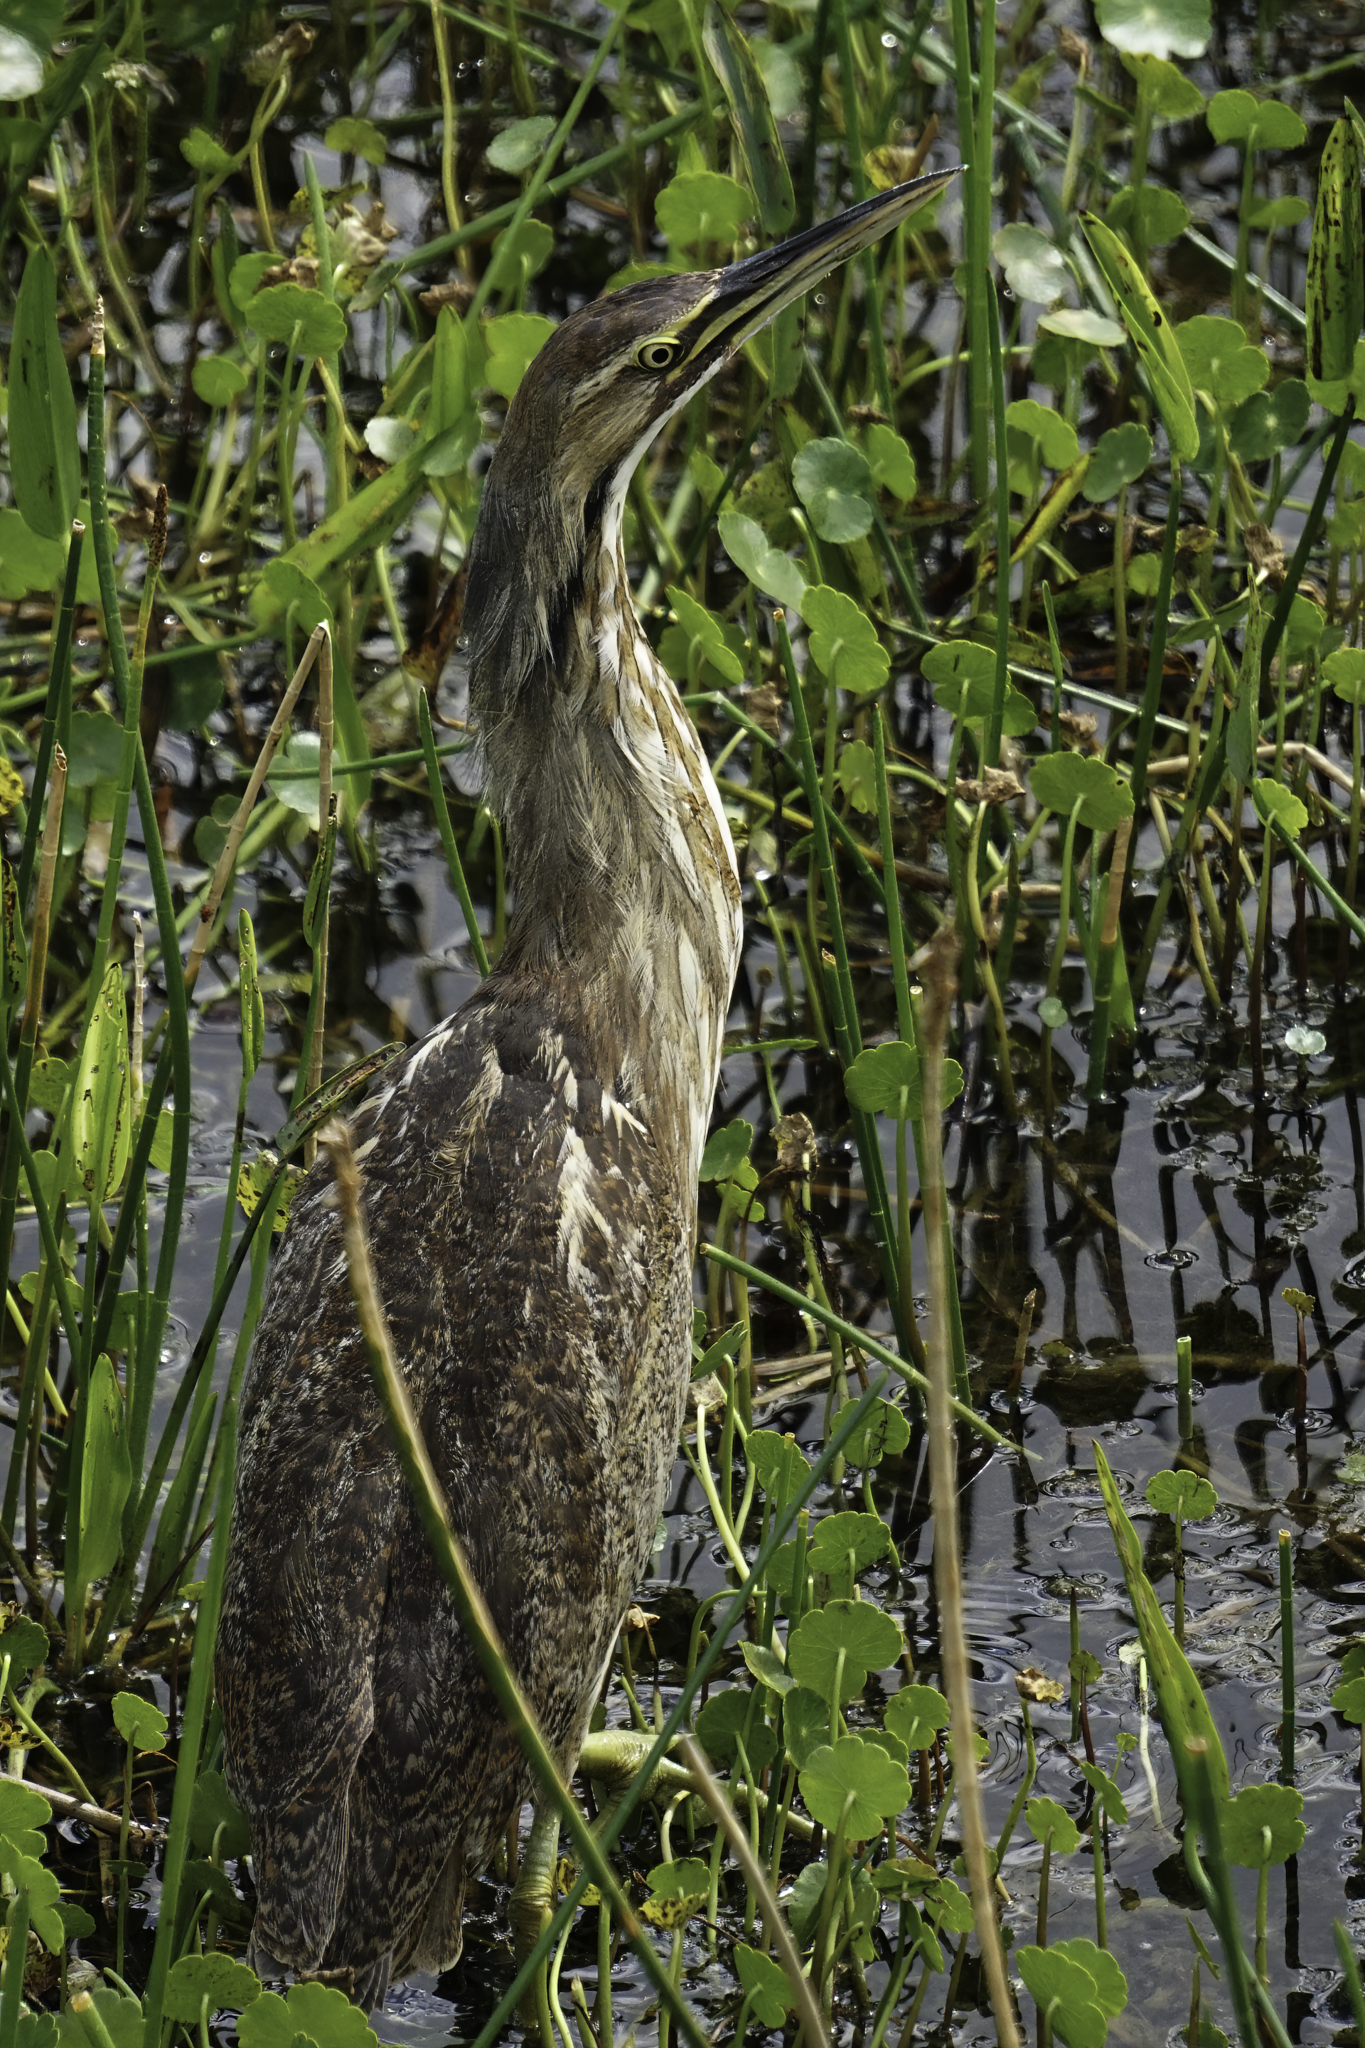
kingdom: Animalia
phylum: Chordata
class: Aves
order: Pelecaniformes
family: Ardeidae
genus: Botaurus
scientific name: Botaurus lentiginosus
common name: American bittern
